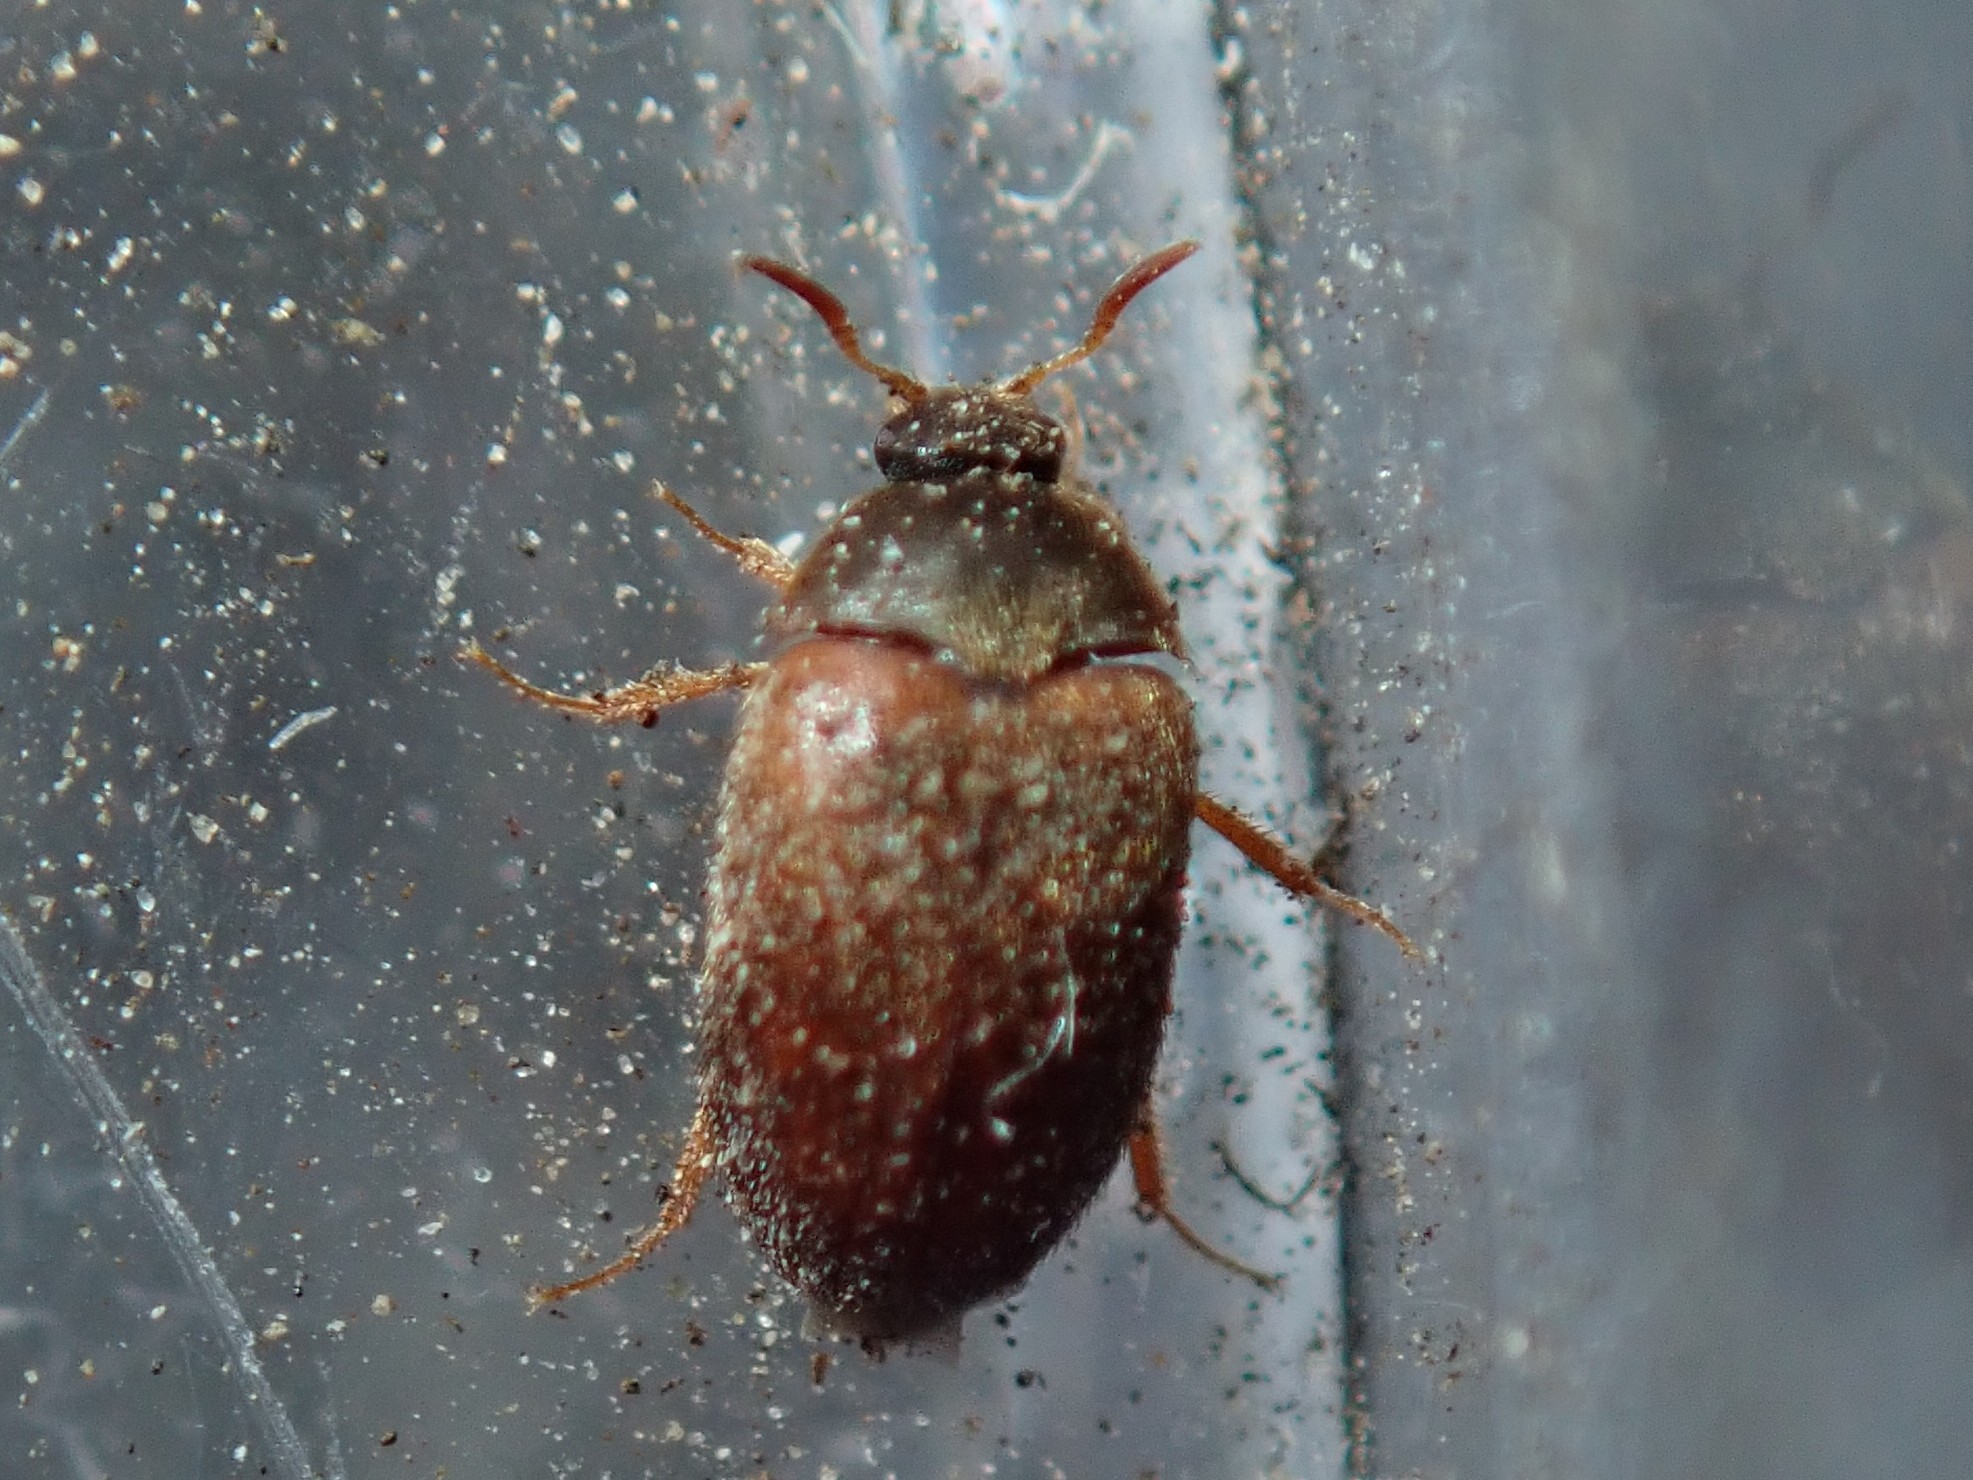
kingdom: Animalia
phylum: Arthropoda
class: Insecta
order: Coleoptera
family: Dermestidae
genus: Attagenus
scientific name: Attagenus smirnovi
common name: Brown carpet beetle
